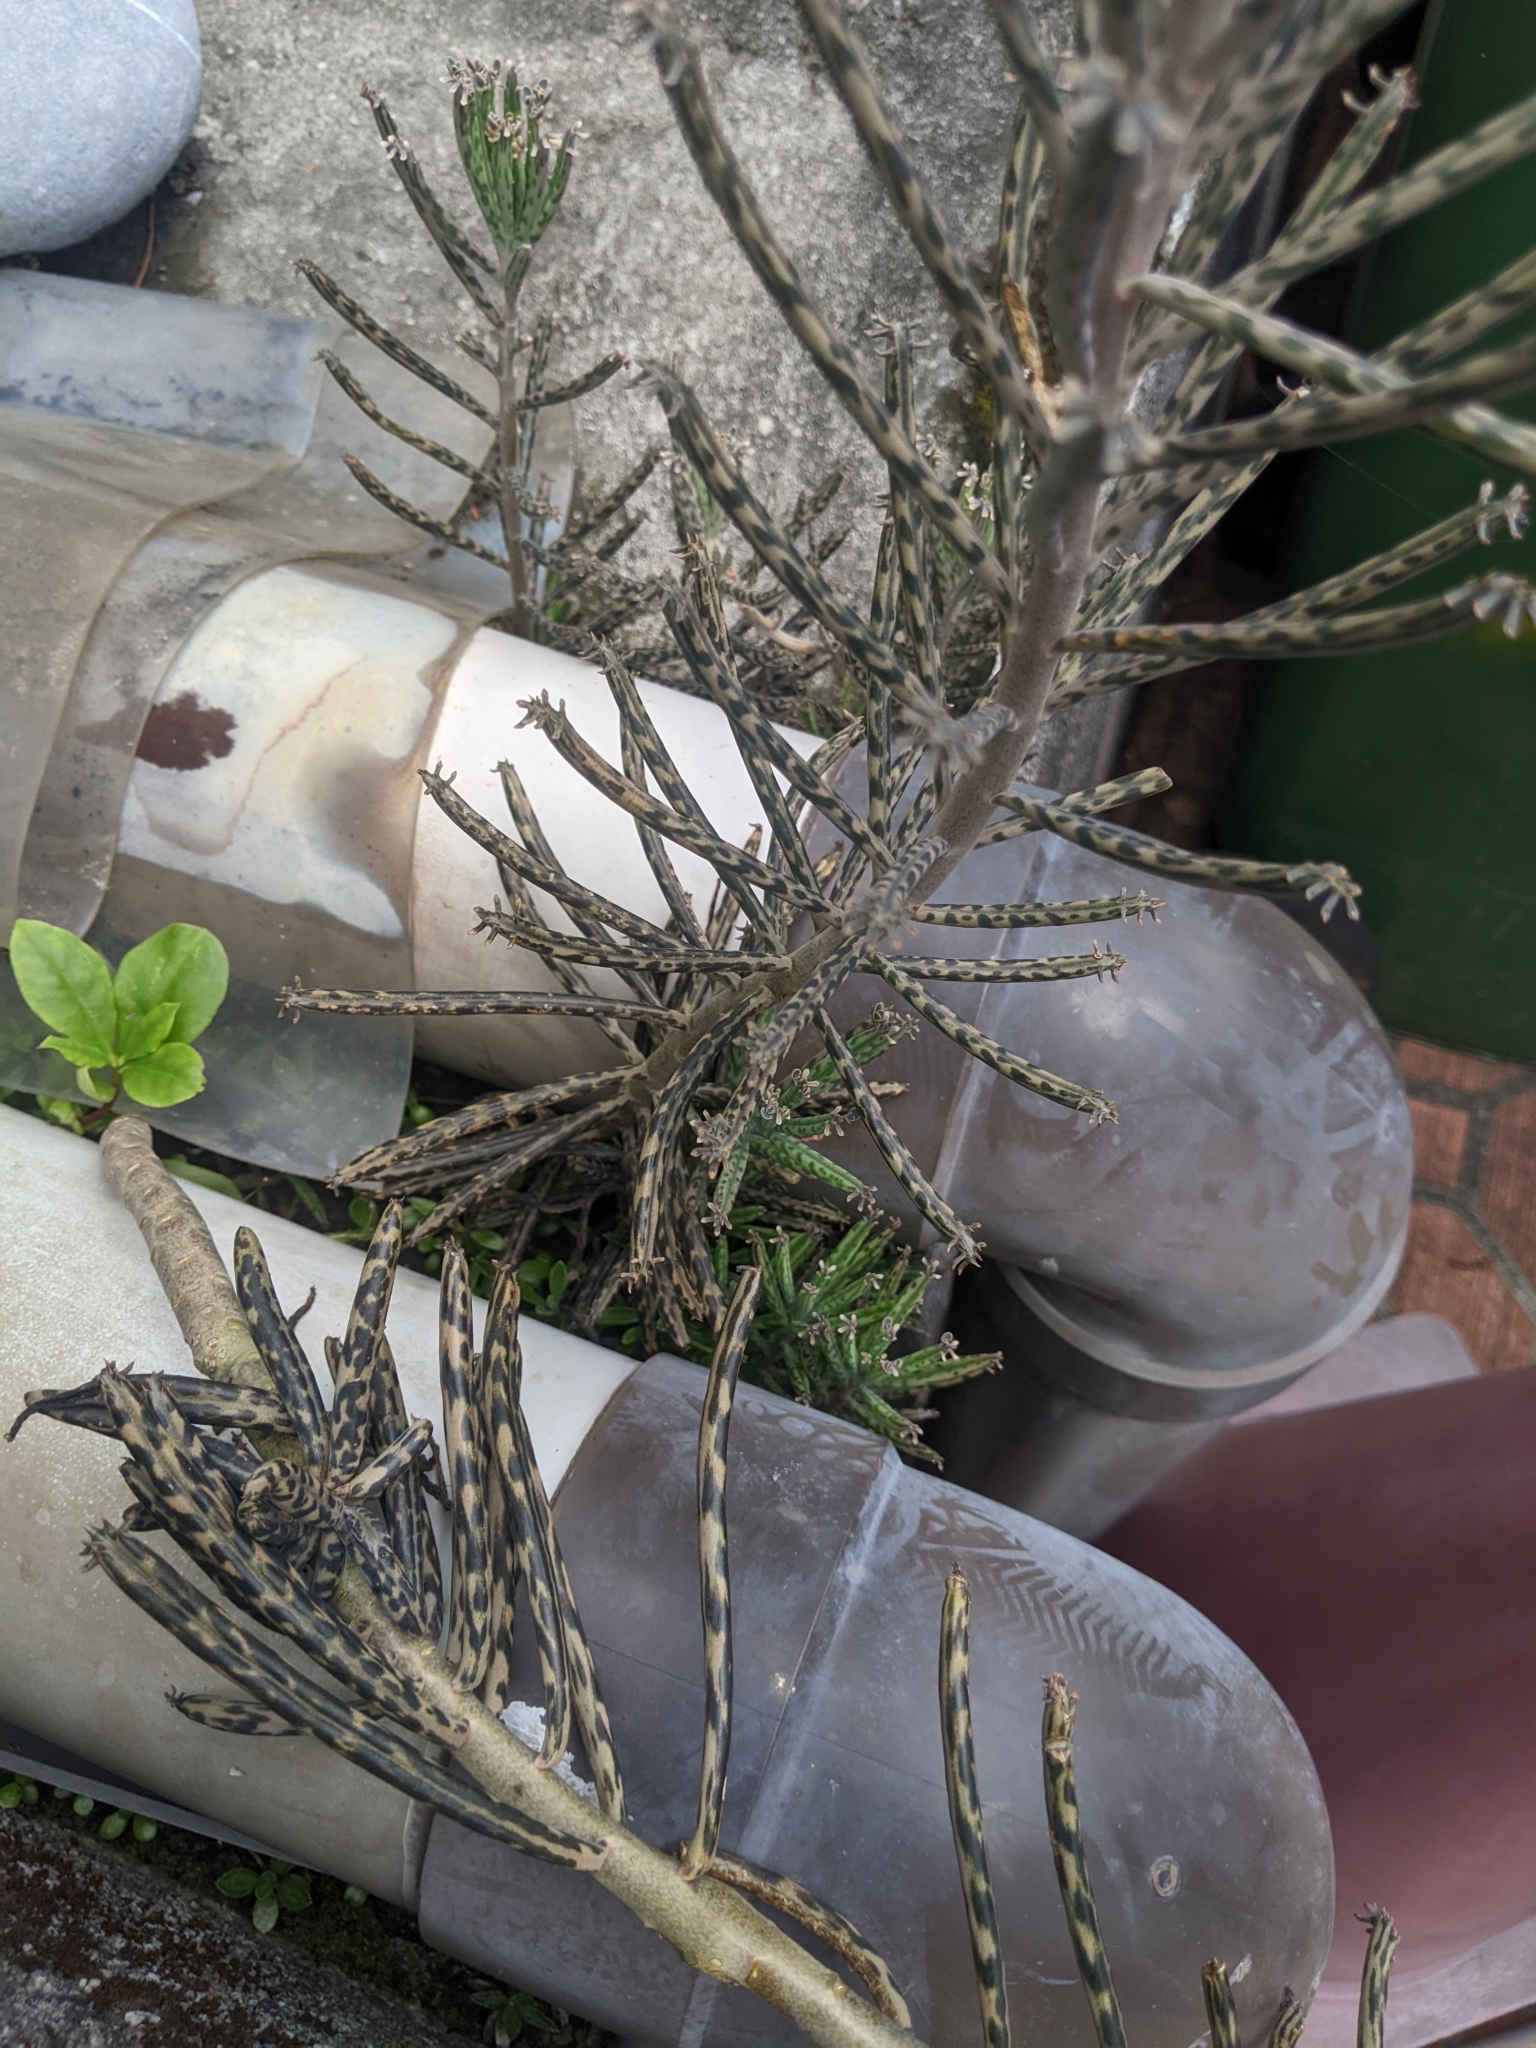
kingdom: Plantae
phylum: Tracheophyta
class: Magnoliopsida
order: Saxifragales
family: Crassulaceae
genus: Kalanchoe
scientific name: Kalanchoe delagoensis
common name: Chandelier plant
